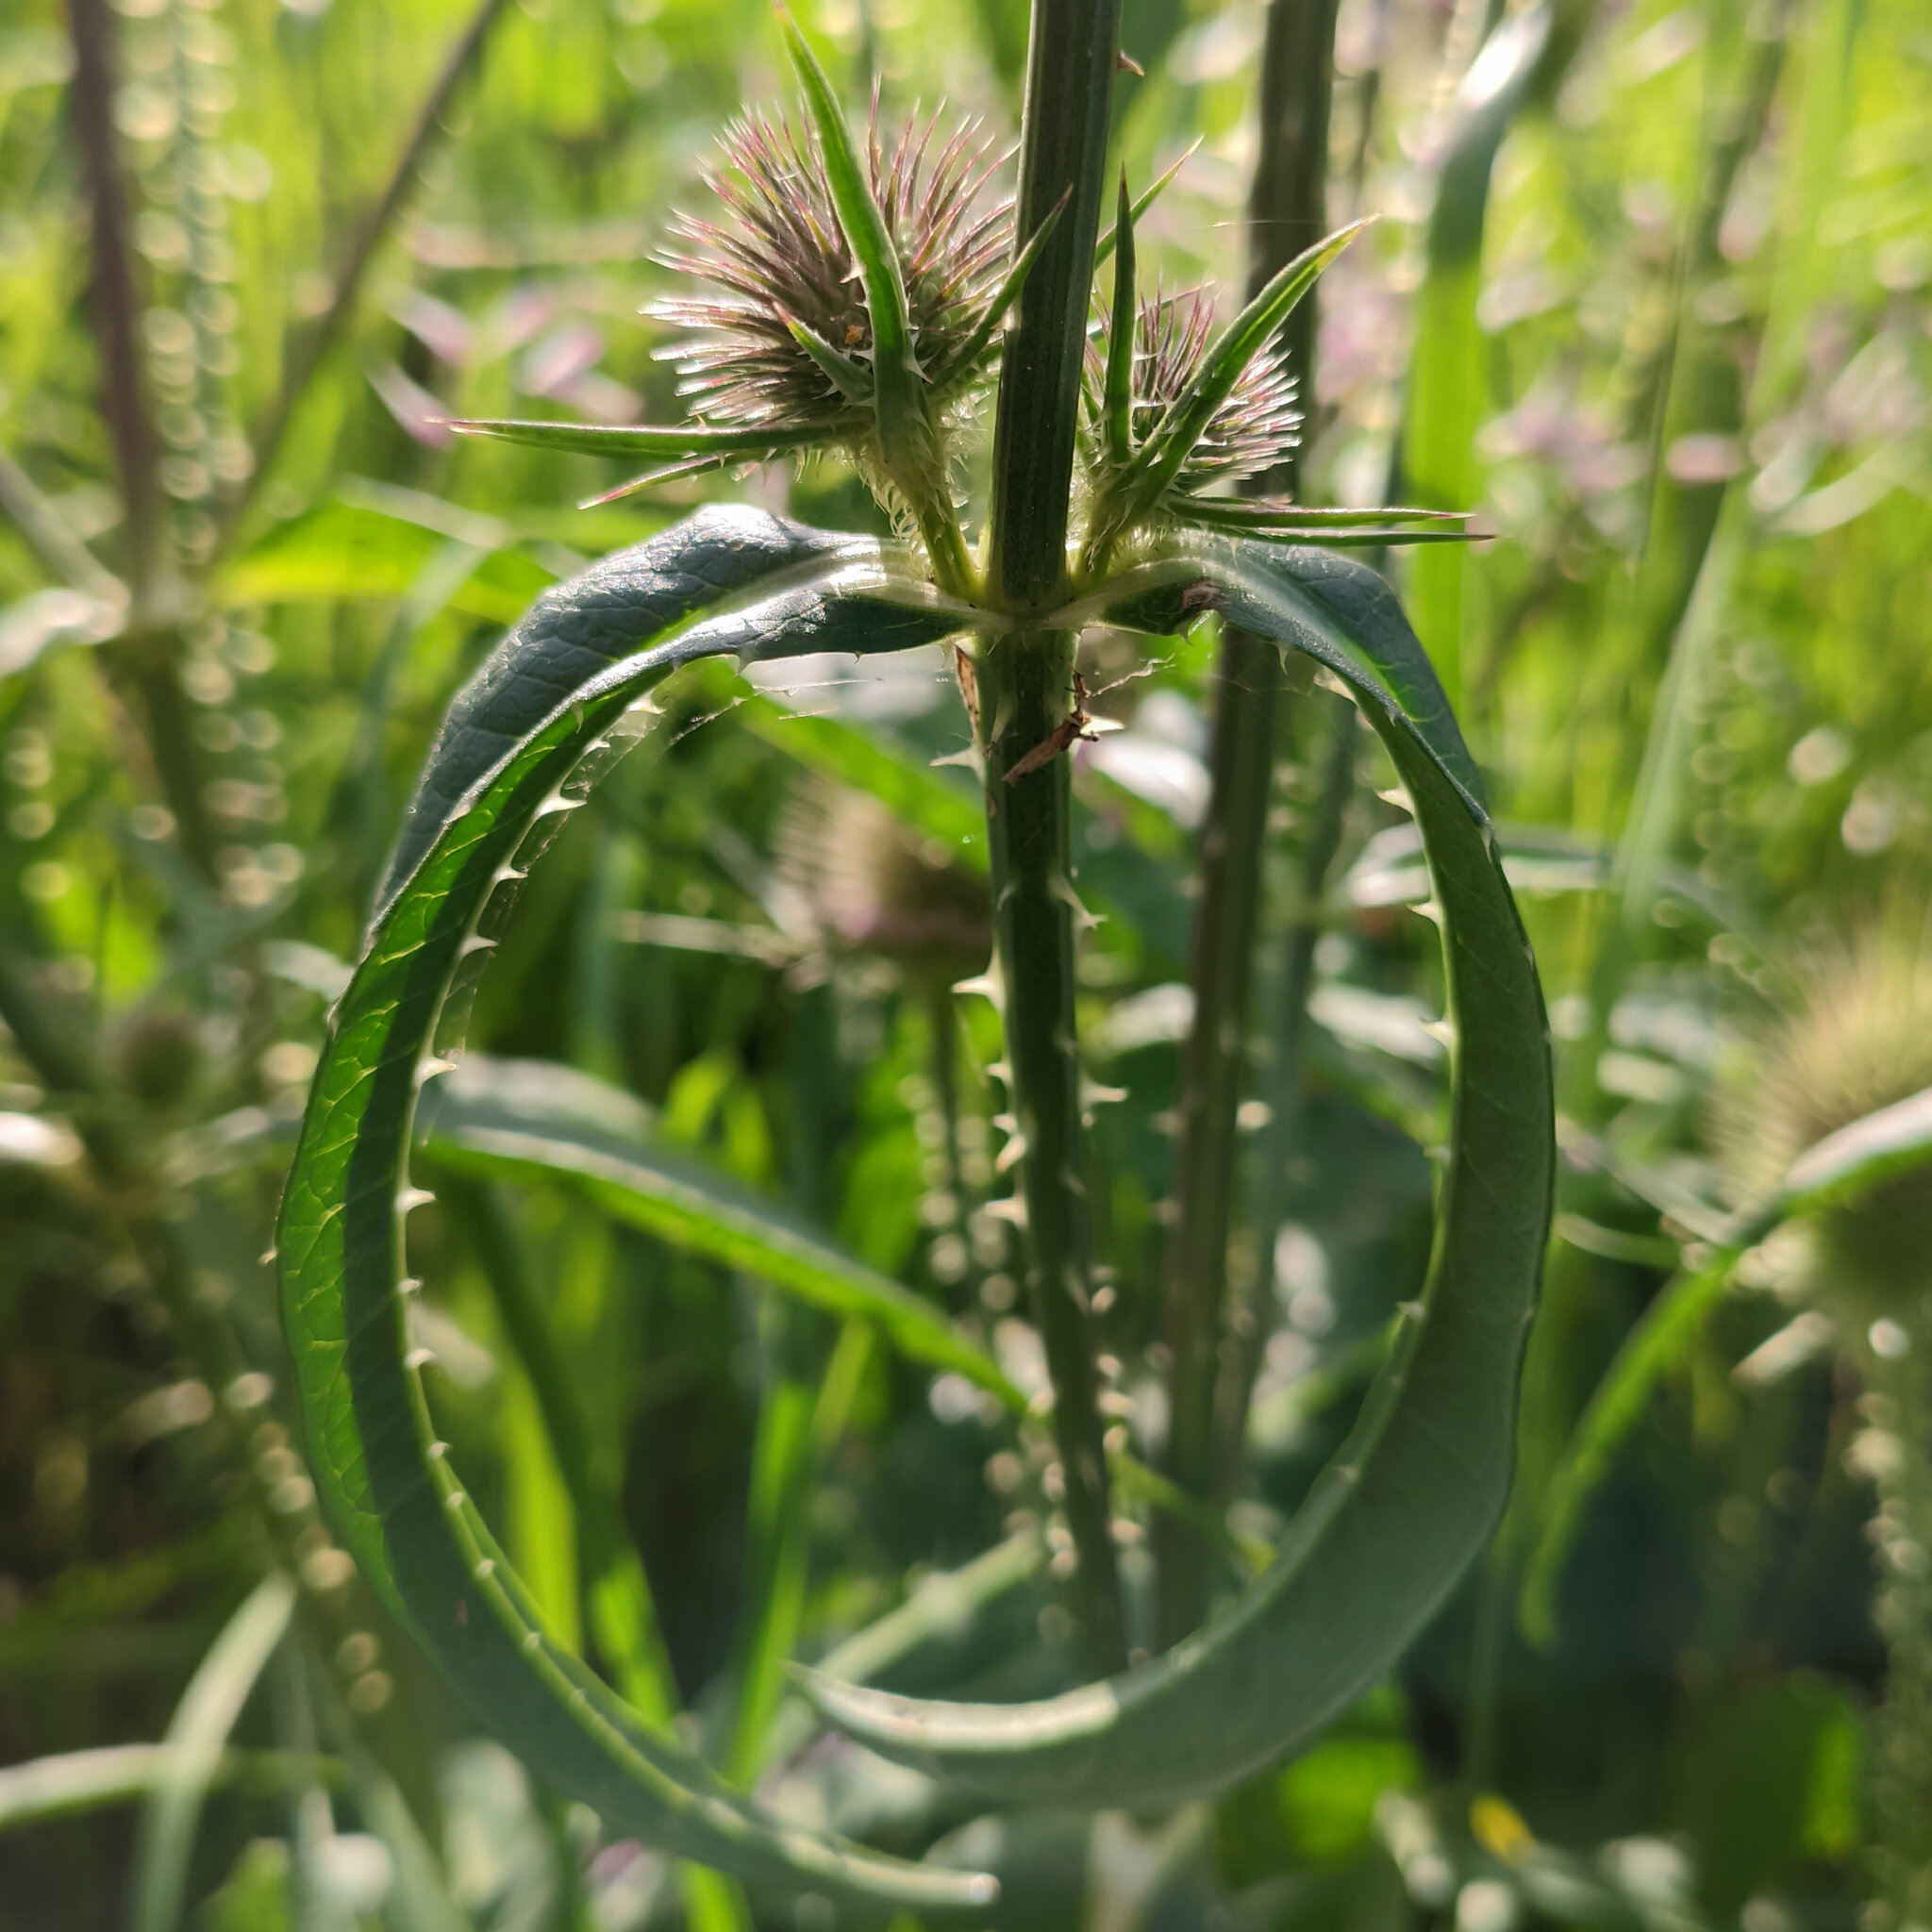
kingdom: Plantae
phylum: Tracheophyta
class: Magnoliopsida
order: Dipsacales
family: Caprifoliaceae
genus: Dipsacus
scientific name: Dipsacus fullonum
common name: Teasel
